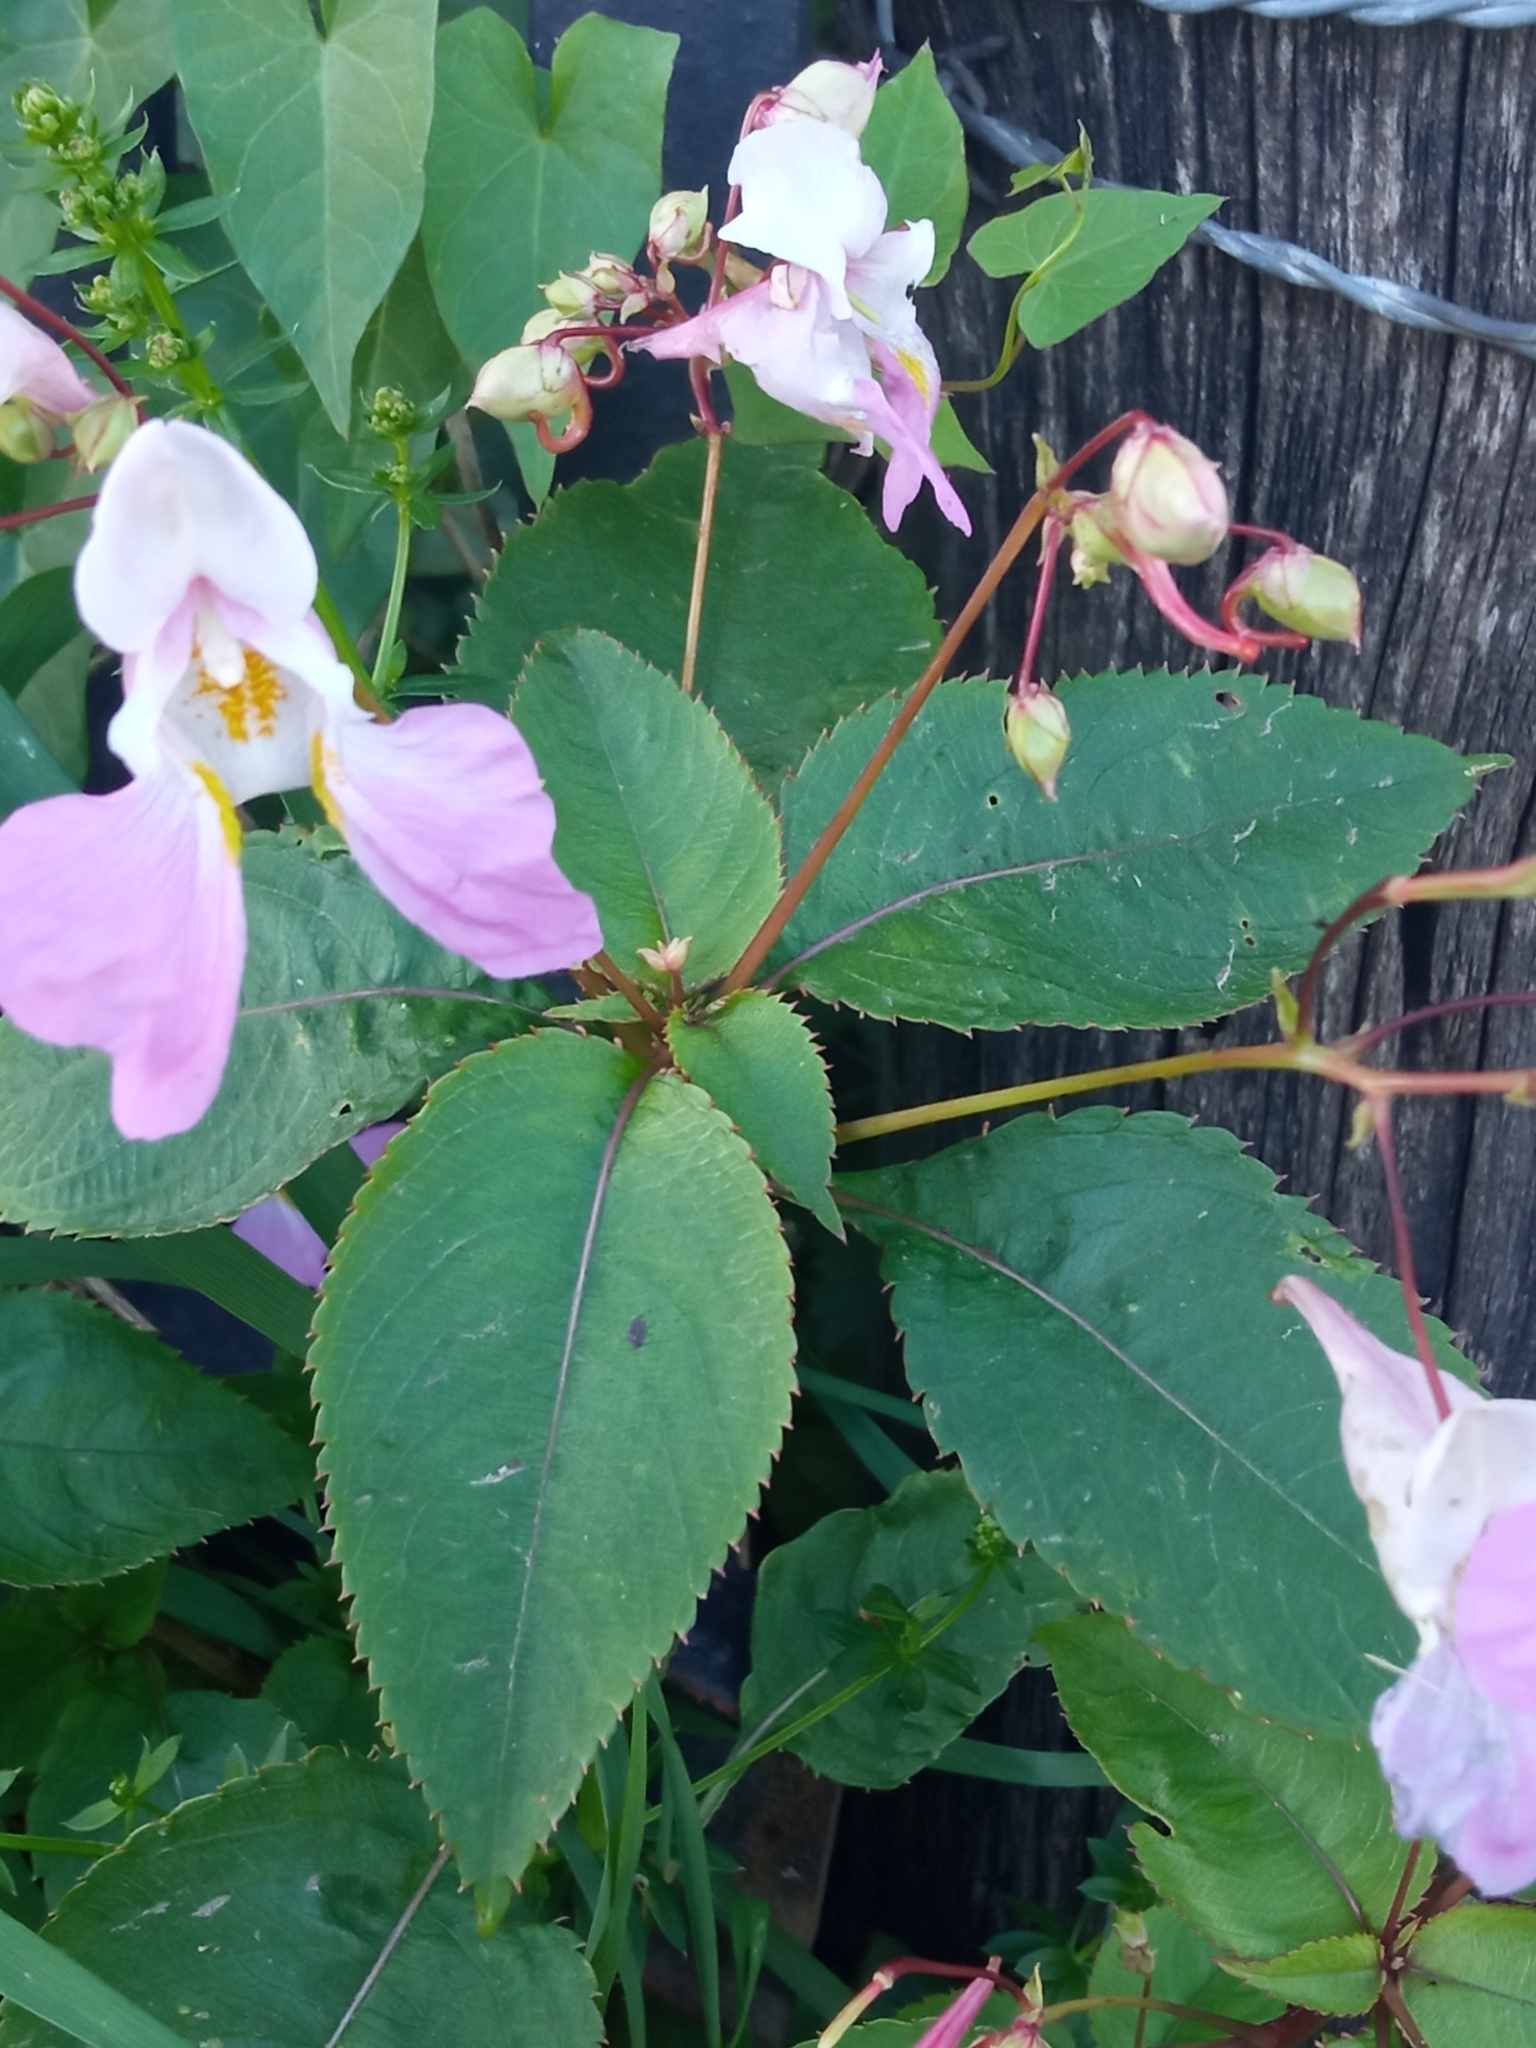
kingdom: Plantae
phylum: Tracheophyta
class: Magnoliopsida
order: Ericales
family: Balsaminaceae
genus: Impatiens
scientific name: Impatiens balfourii
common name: Balfour's touch-me-not
